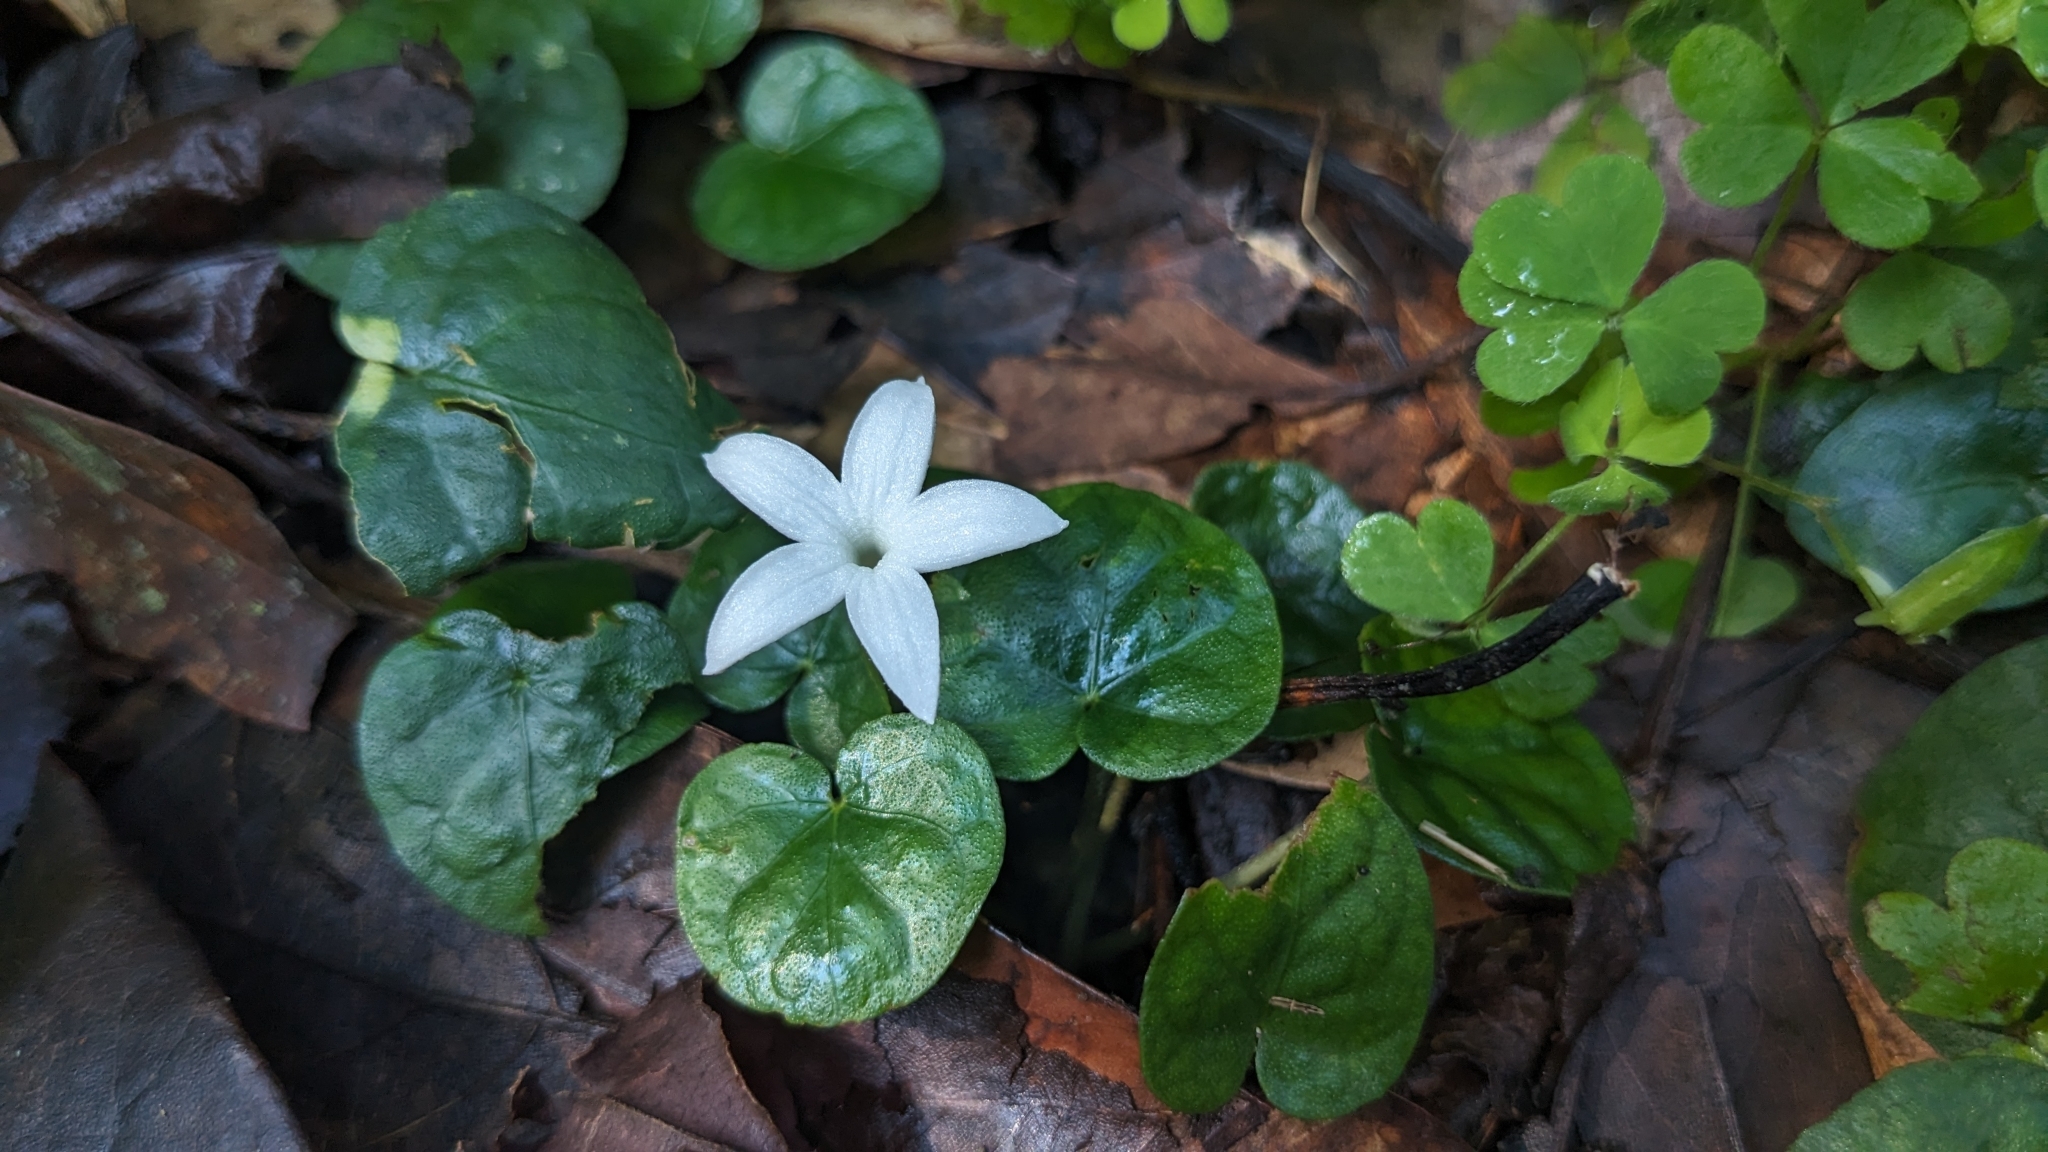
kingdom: Plantae
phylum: Tracheophyta
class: Magnoliopsida
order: Gentianales
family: Rubiaceae
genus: Geophila
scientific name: Geophila herbacea
